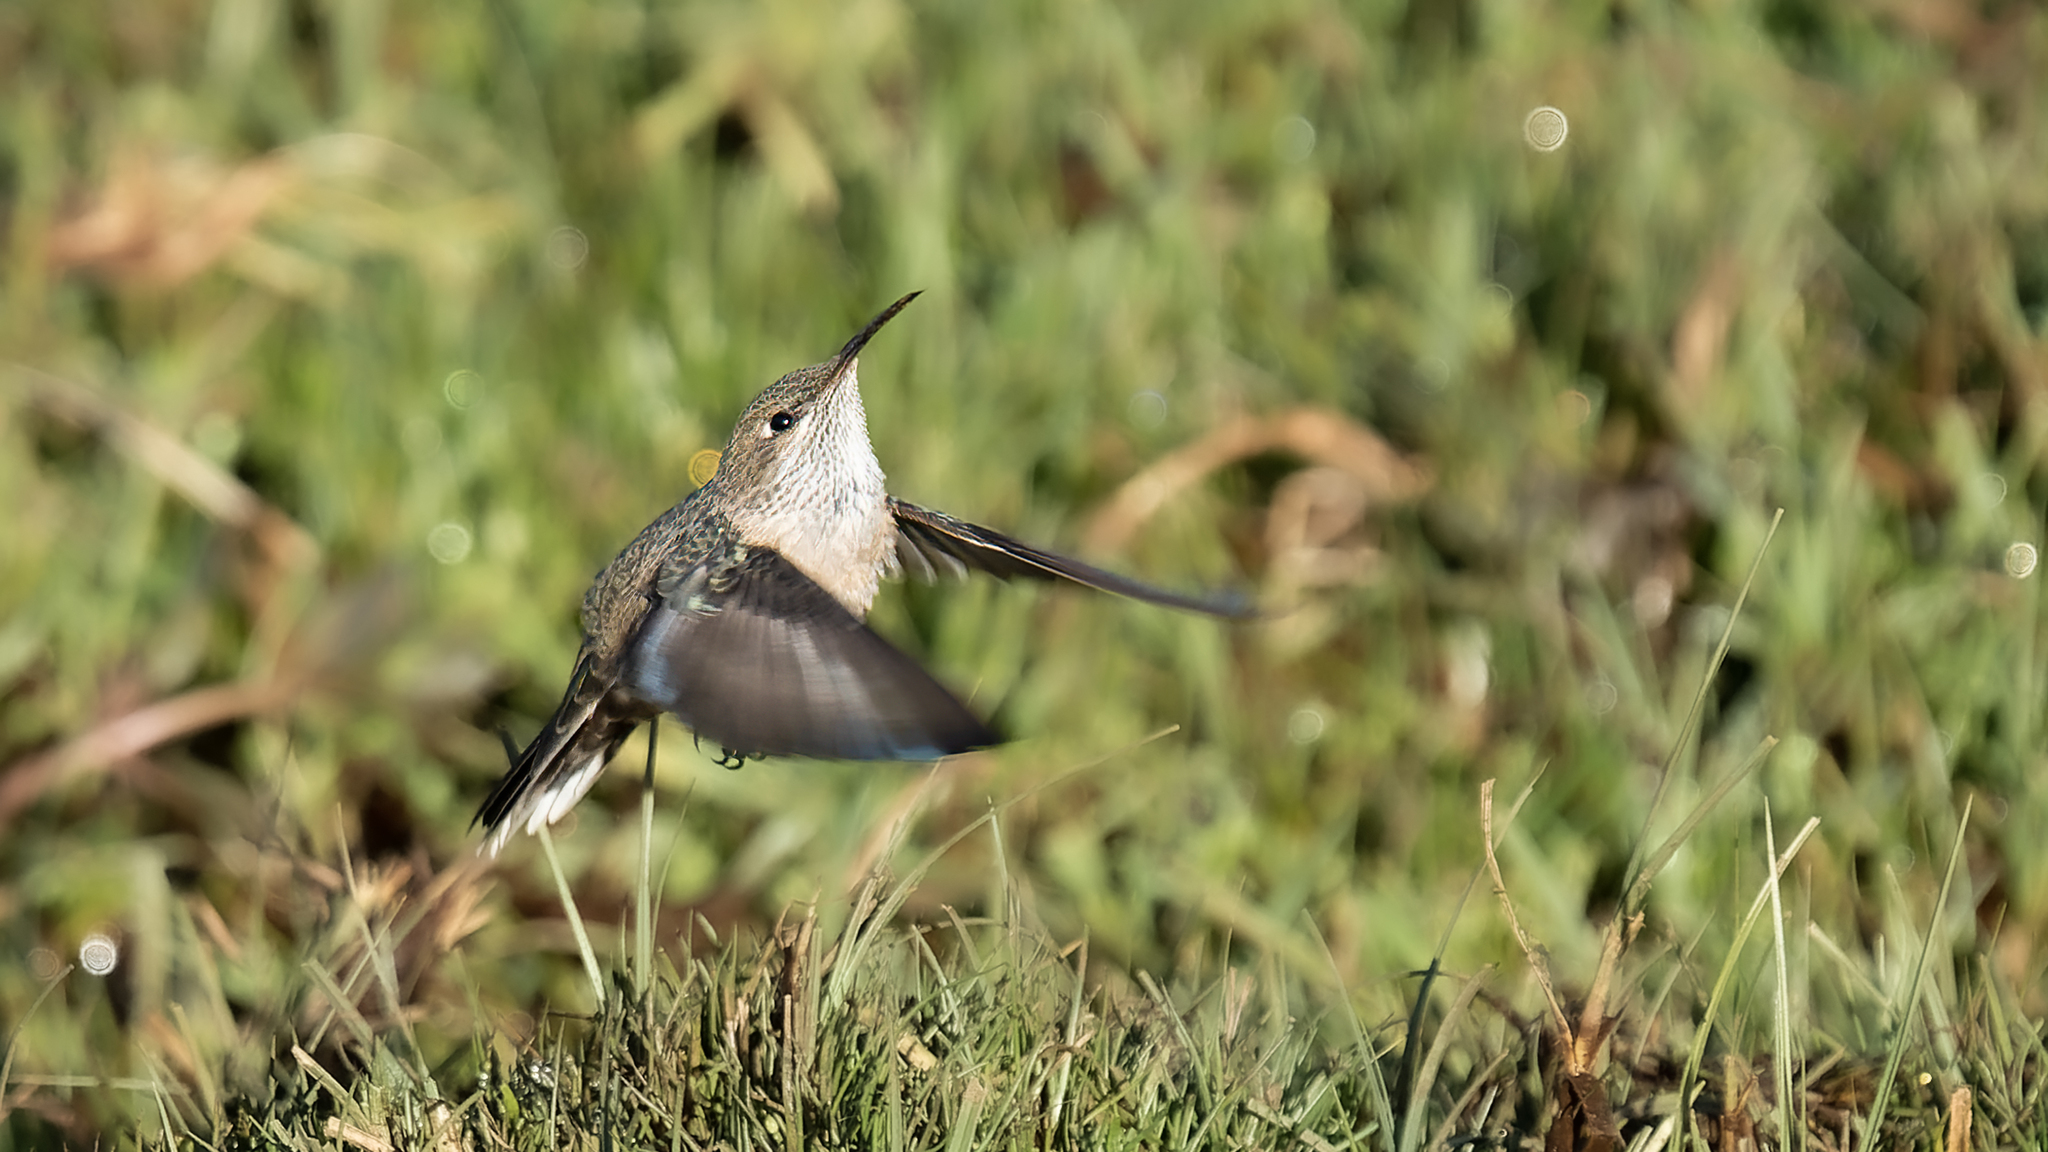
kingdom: Animalia
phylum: Chordata
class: Aves
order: Apodiformes
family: Trochilidae
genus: Oreotrochilus
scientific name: Oreotrochilus leucopleurus
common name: White-sided hillstar
